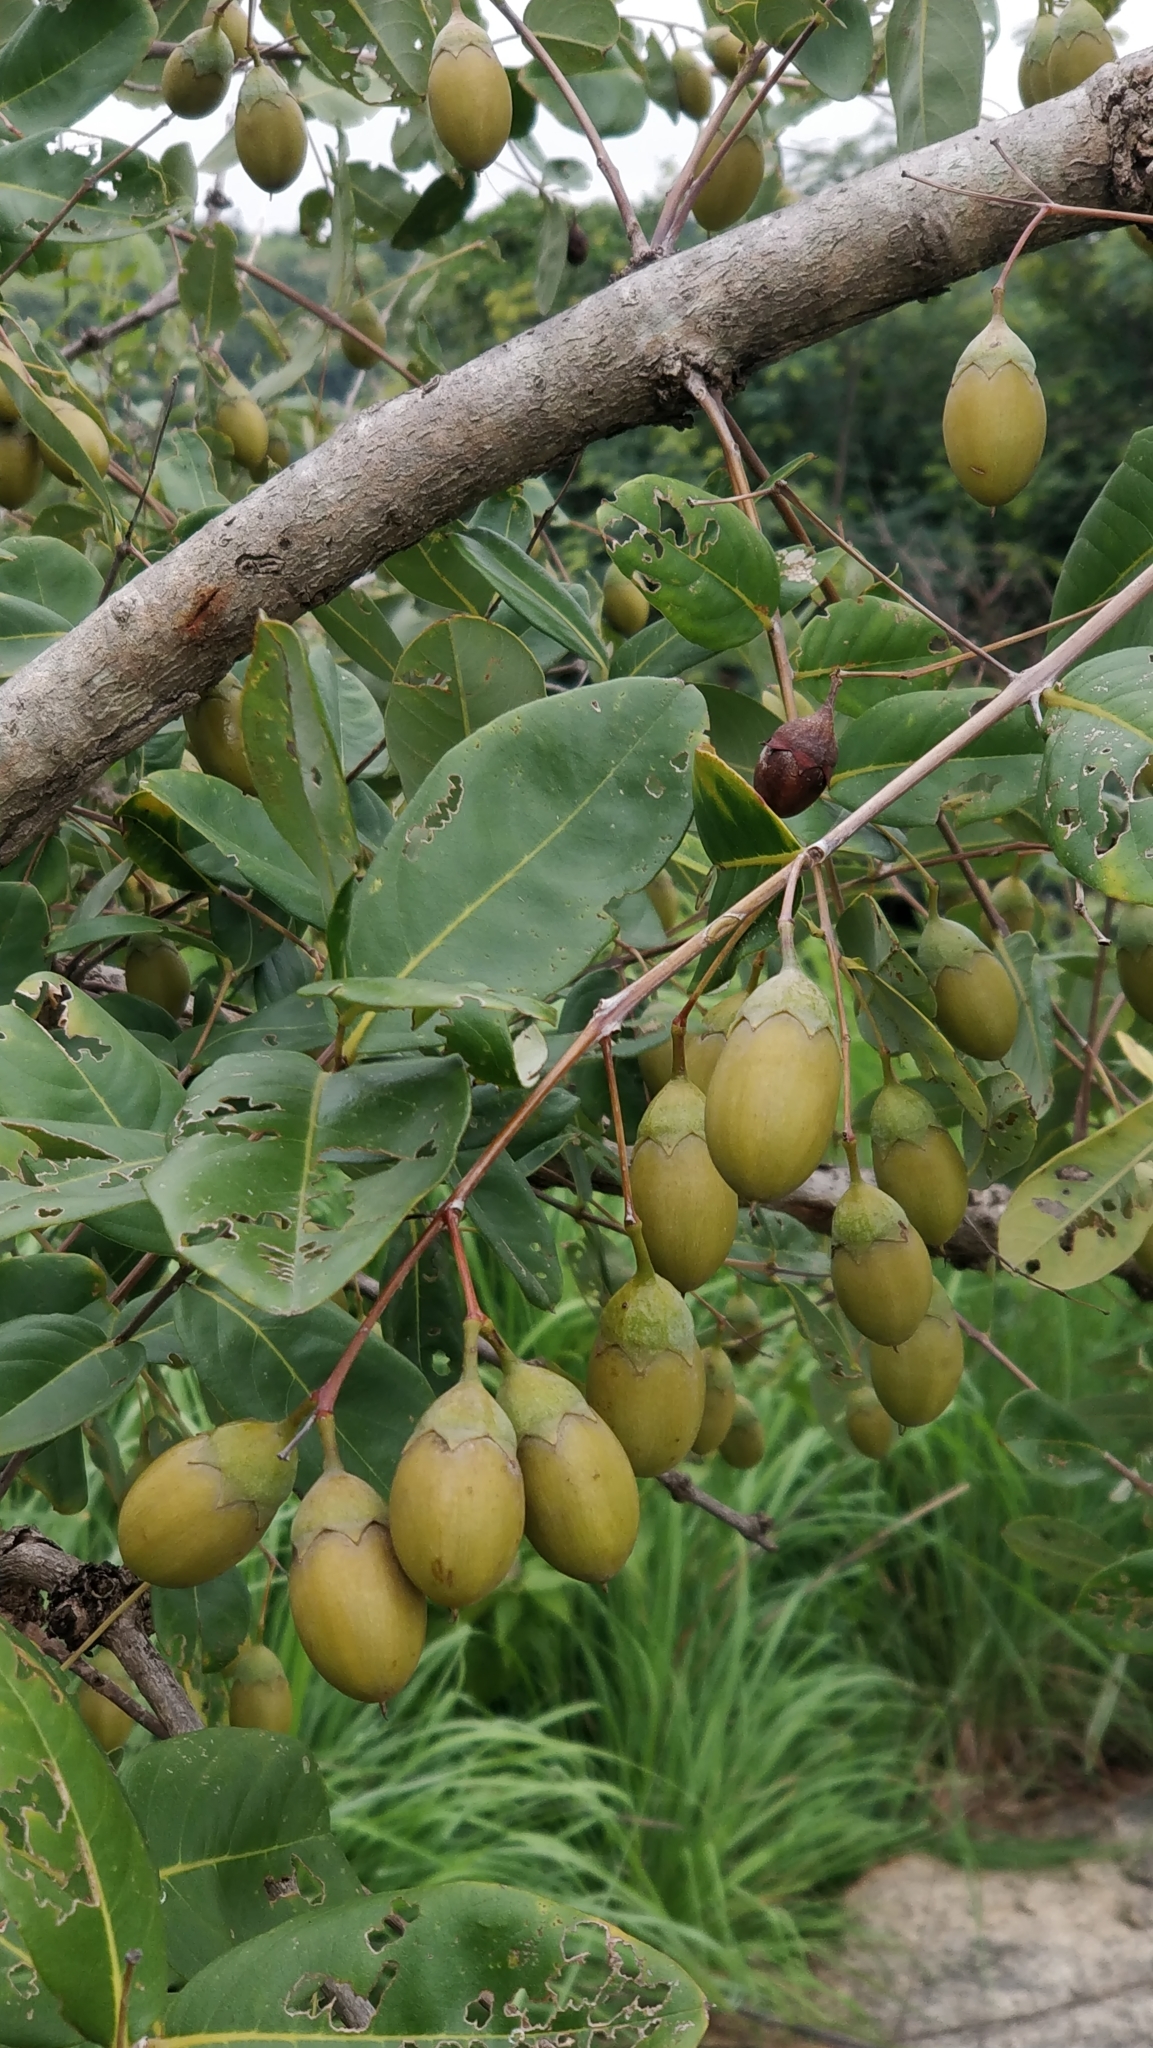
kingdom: Plantae
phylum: Tracheophyta
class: Magnoliopsida
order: Myrtales
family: Lythraceae
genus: Lagerstroemia
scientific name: Lagerstroemia parviflora
